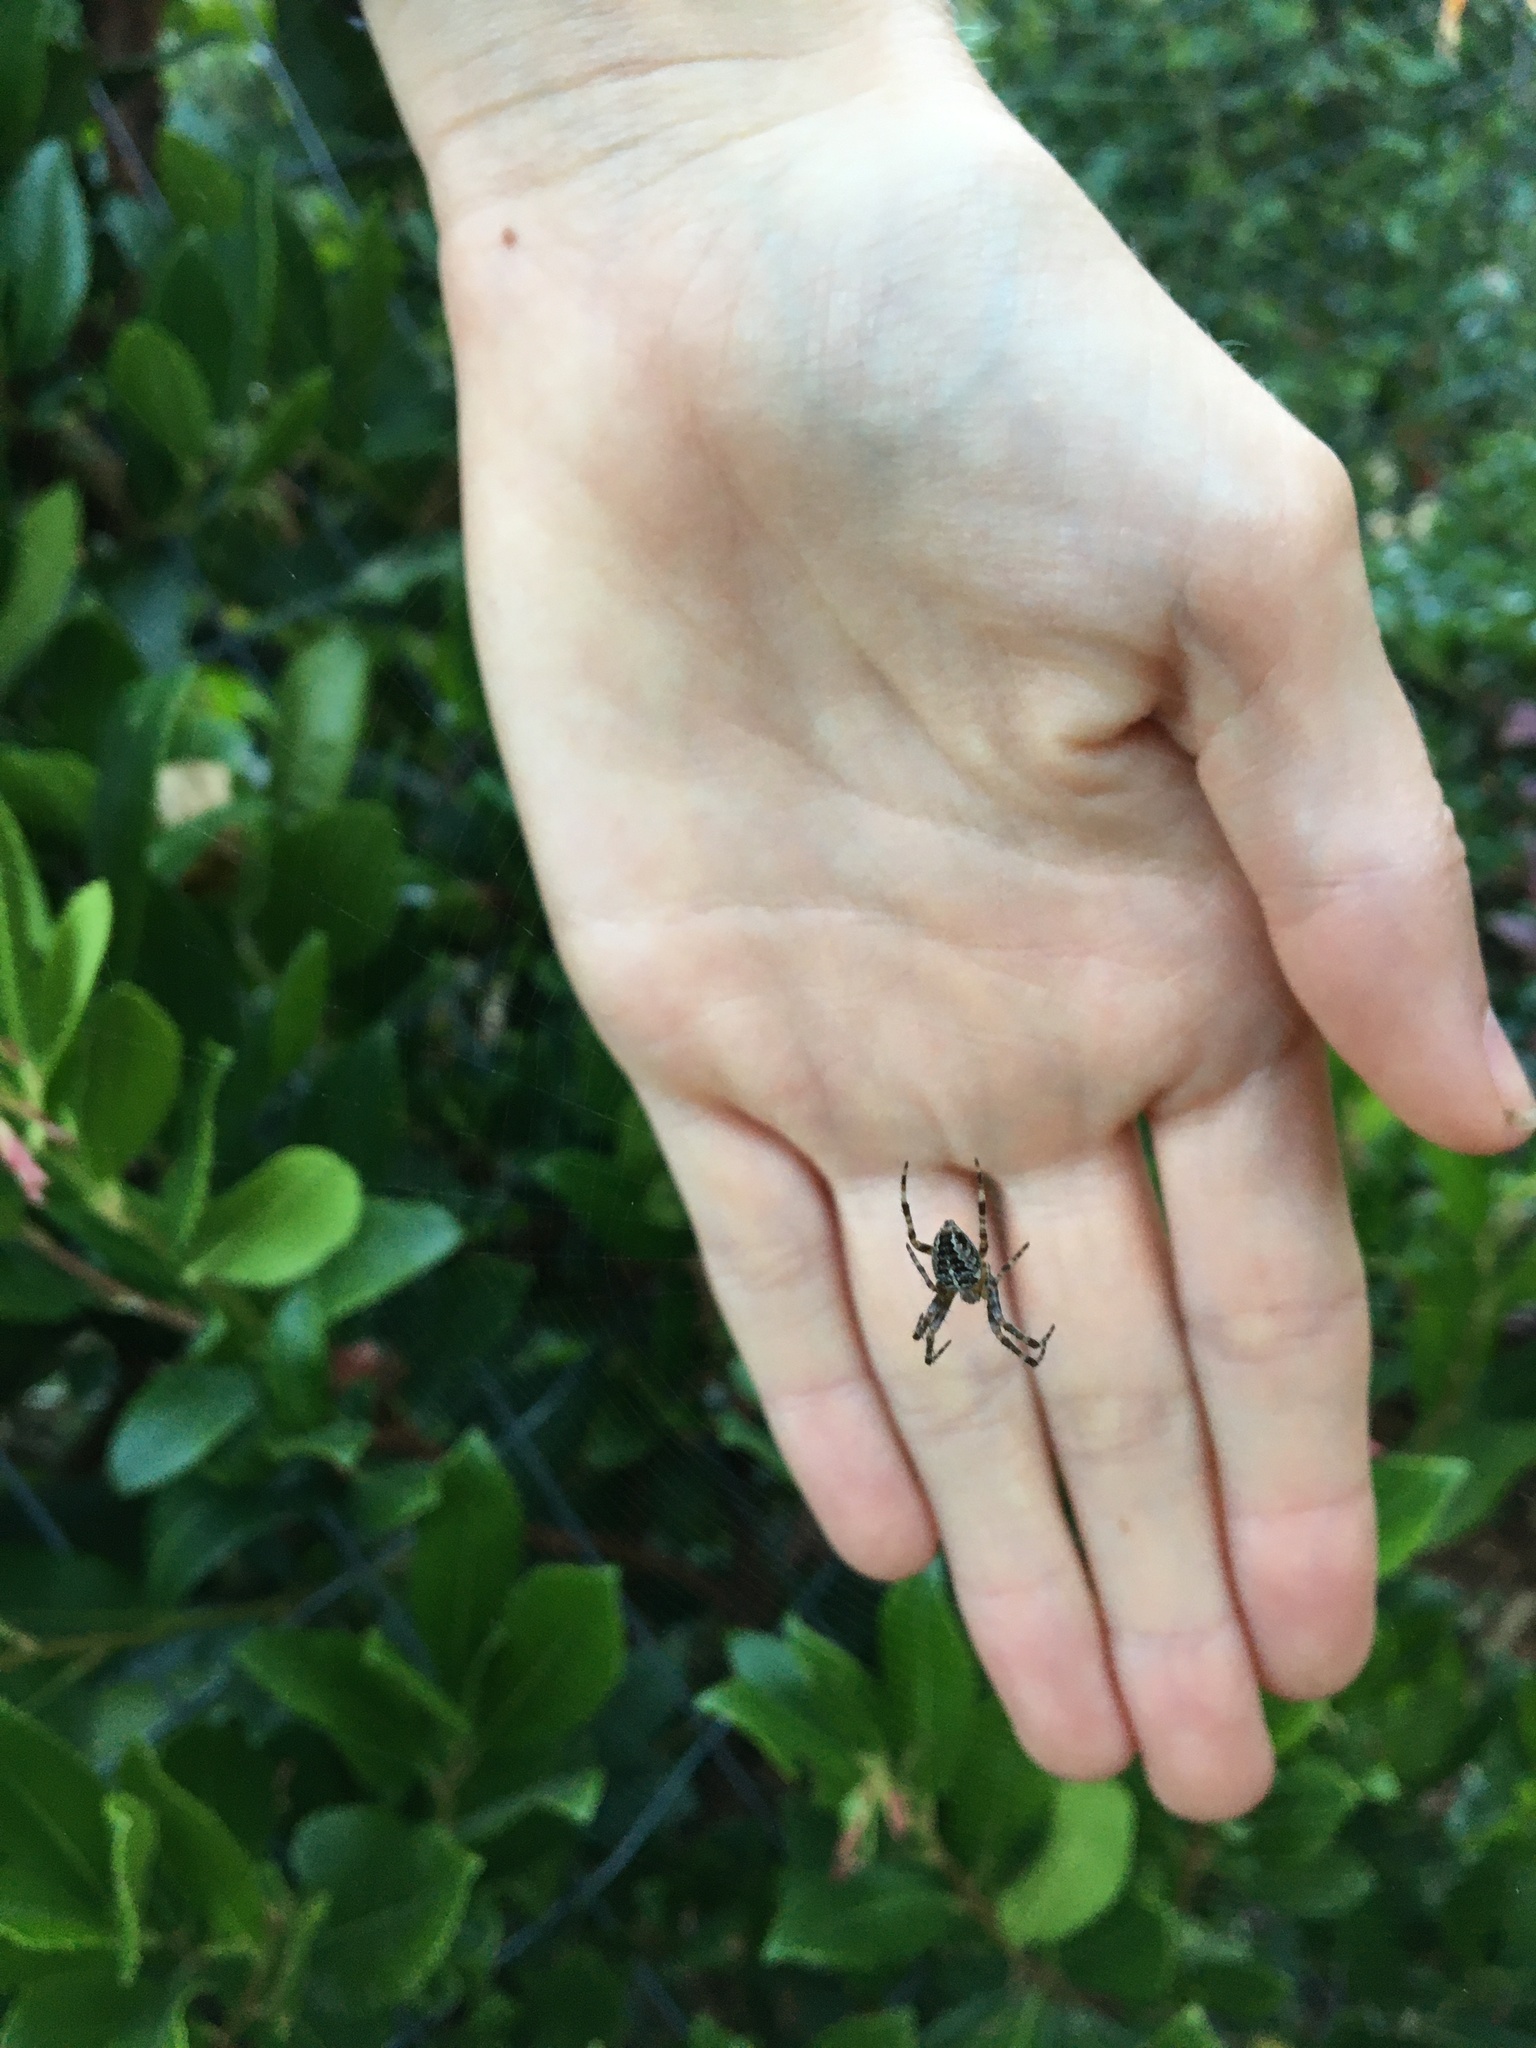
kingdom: Animalia
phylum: Arthropoda
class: Arachnida
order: Araneae
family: Araneidae
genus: Araneus
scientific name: Araneus diadematus
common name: Cross orbweaver
